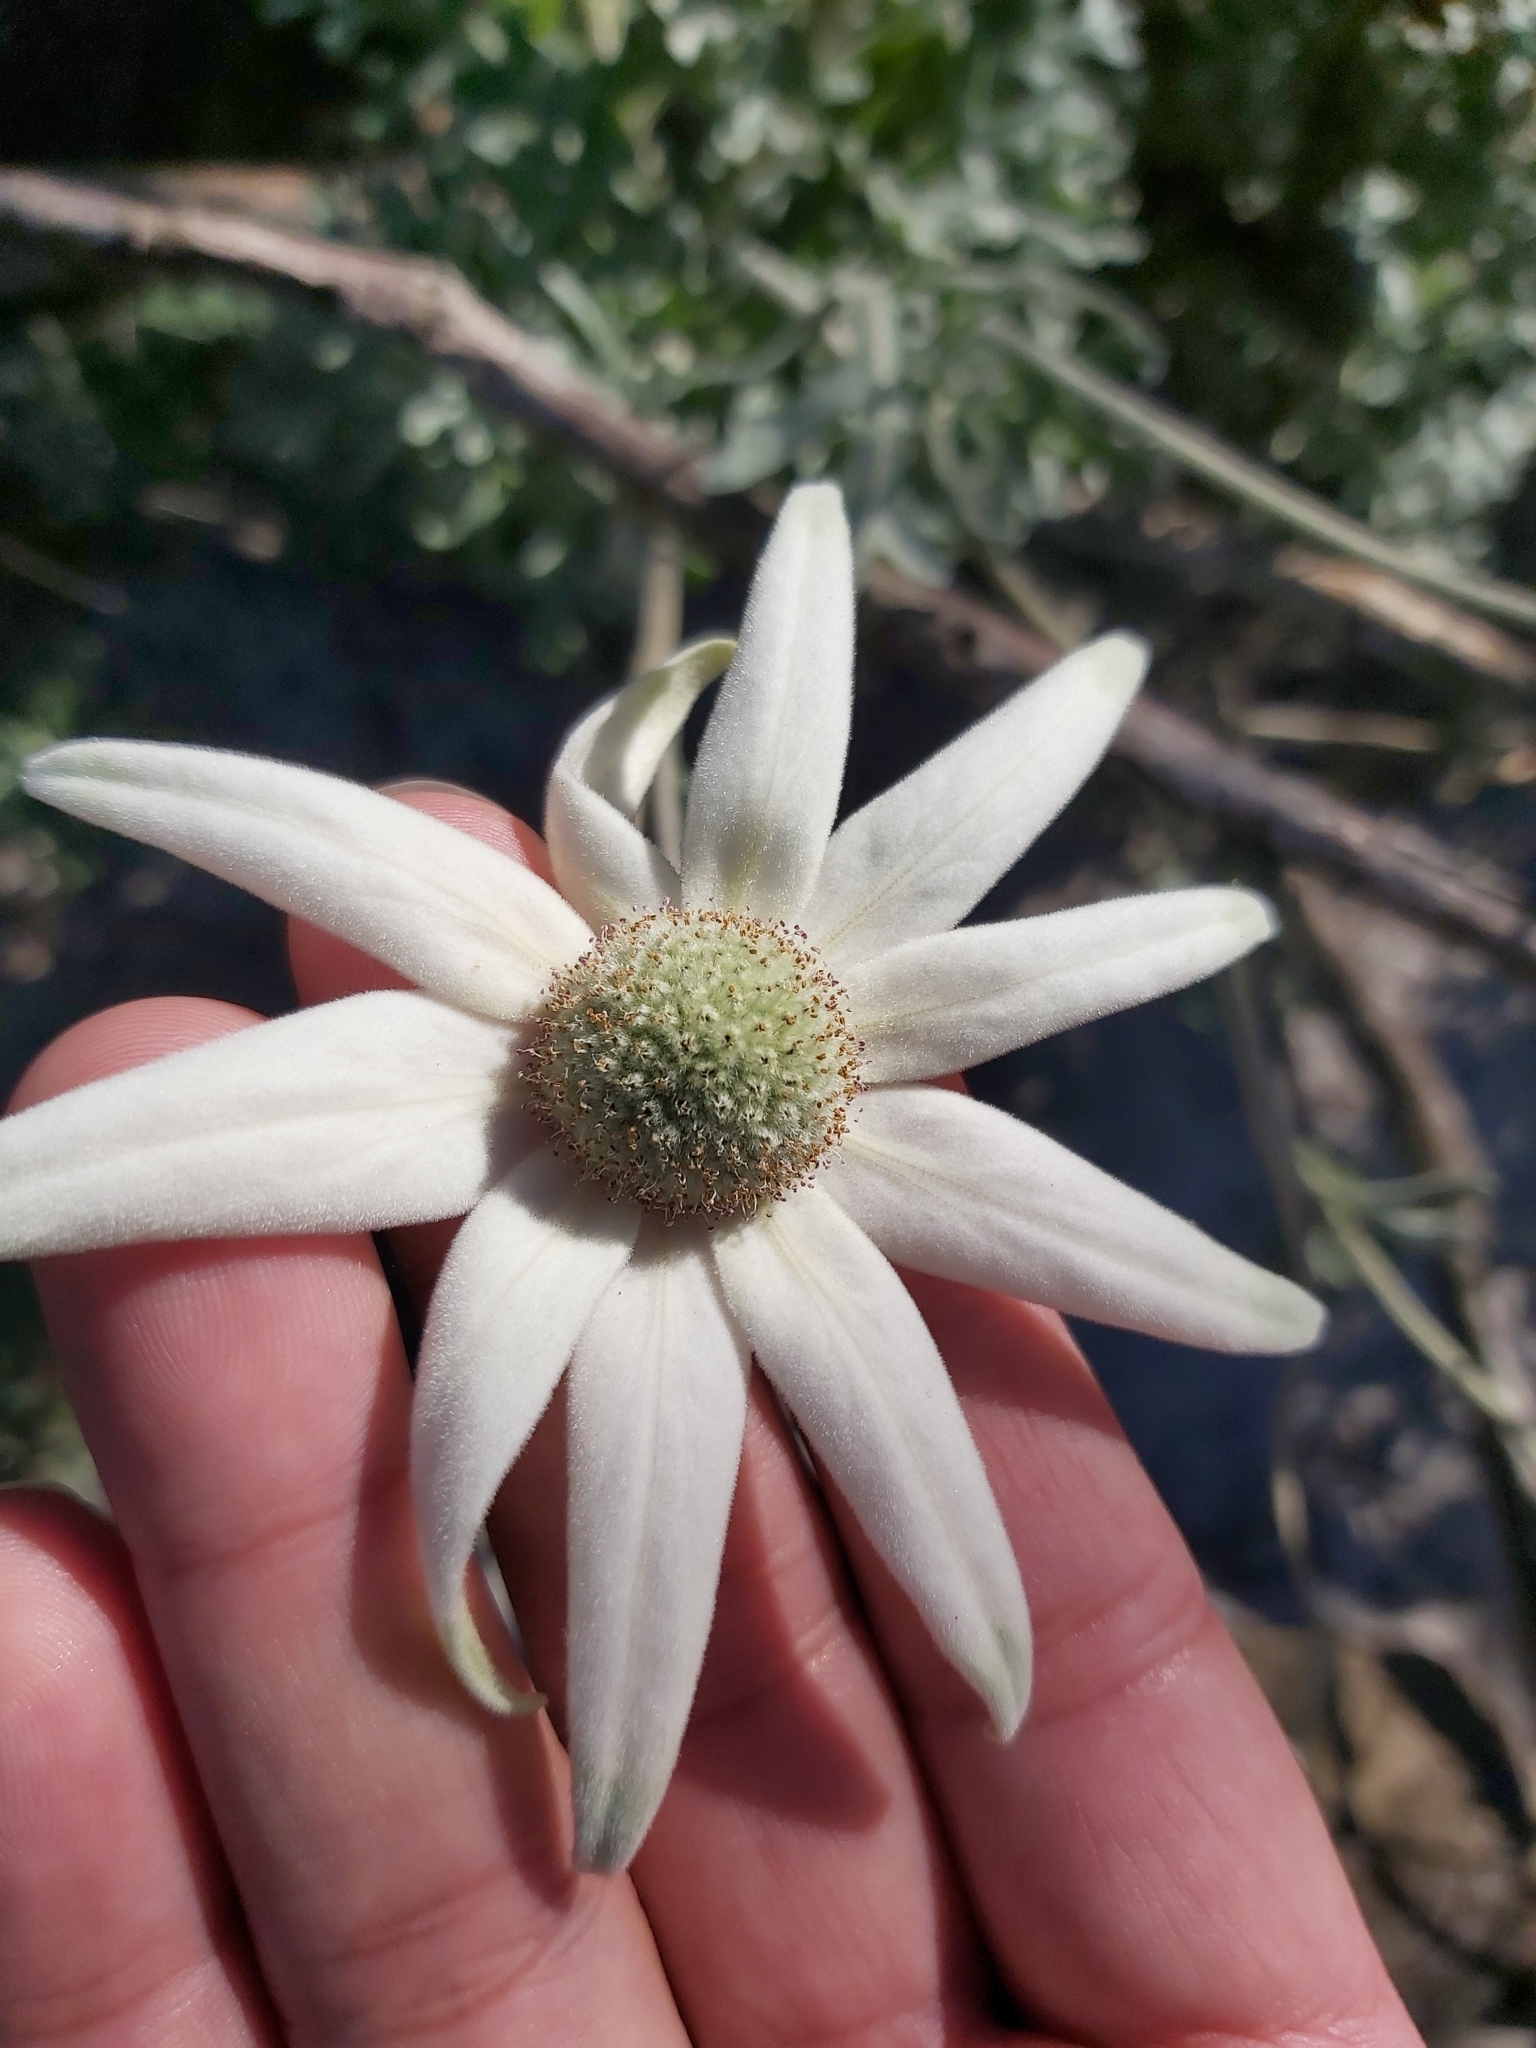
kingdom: Plantae
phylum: Tracheophyta
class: Magnoliopsida
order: Apiales
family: Apiaceae
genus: Actinotus
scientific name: Actinotus helianthi
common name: Flannel-flower
